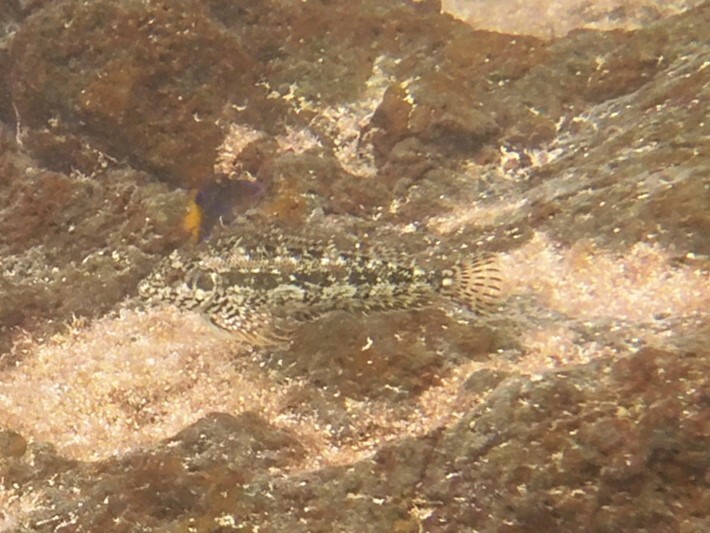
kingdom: Animalia
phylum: Chordata
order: Perciformes
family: Labrisomidae
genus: Malacoctenus
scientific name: Malacoctenus zonogaster
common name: Belted blenny
